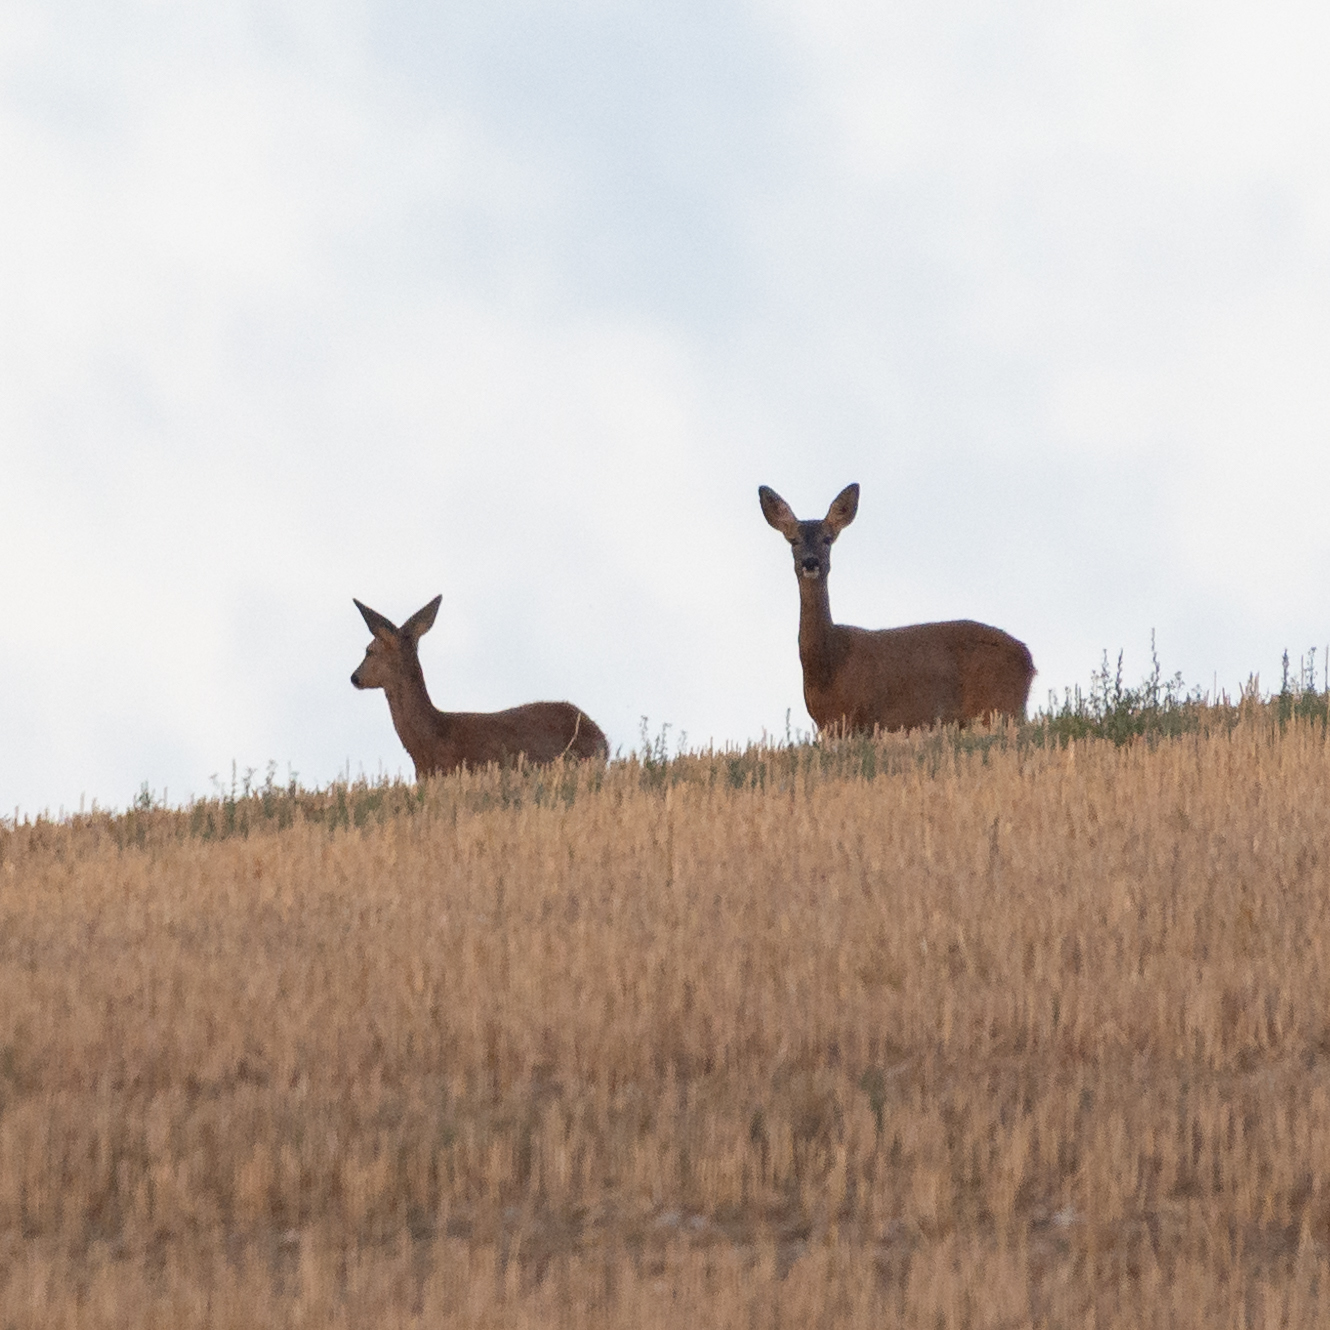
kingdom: Animalia
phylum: Chordata
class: Mammalia
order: Artiodactyla
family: Cervidae
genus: Capreolus
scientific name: Capreolus capreolus
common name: Western roe deer
